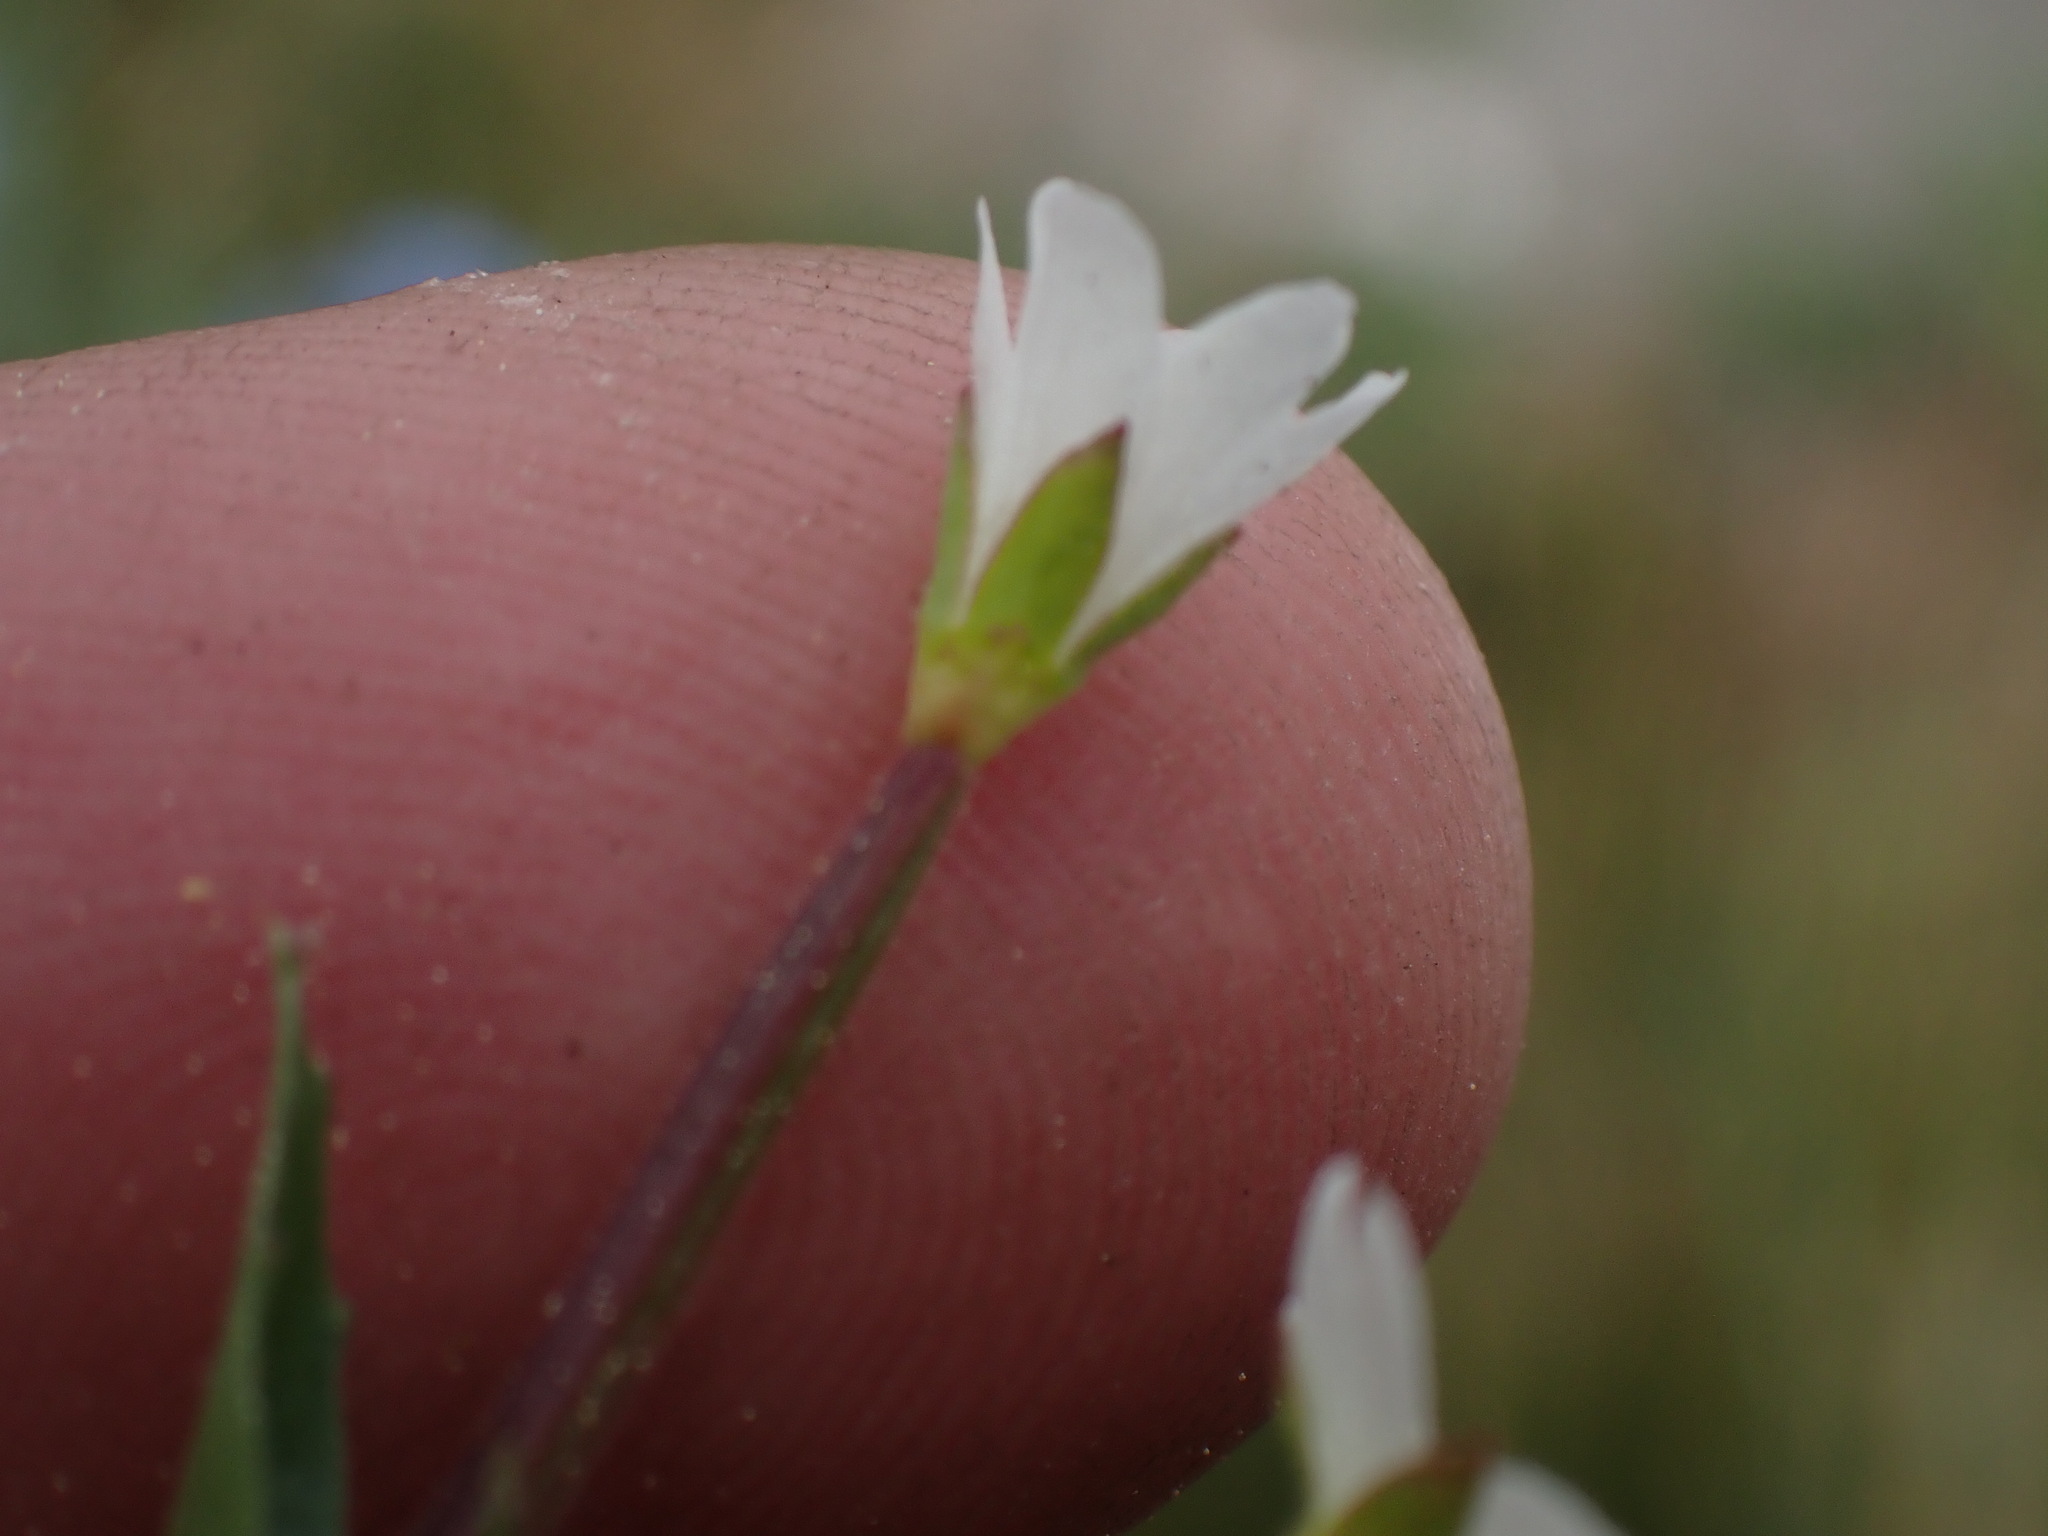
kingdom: Plantae
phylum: Tracheophyta
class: Magnoliopsida
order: Myrtales
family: Onagraceae
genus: Epilobium
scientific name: Epilobium lactiflorum
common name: Milkflower willowherb
